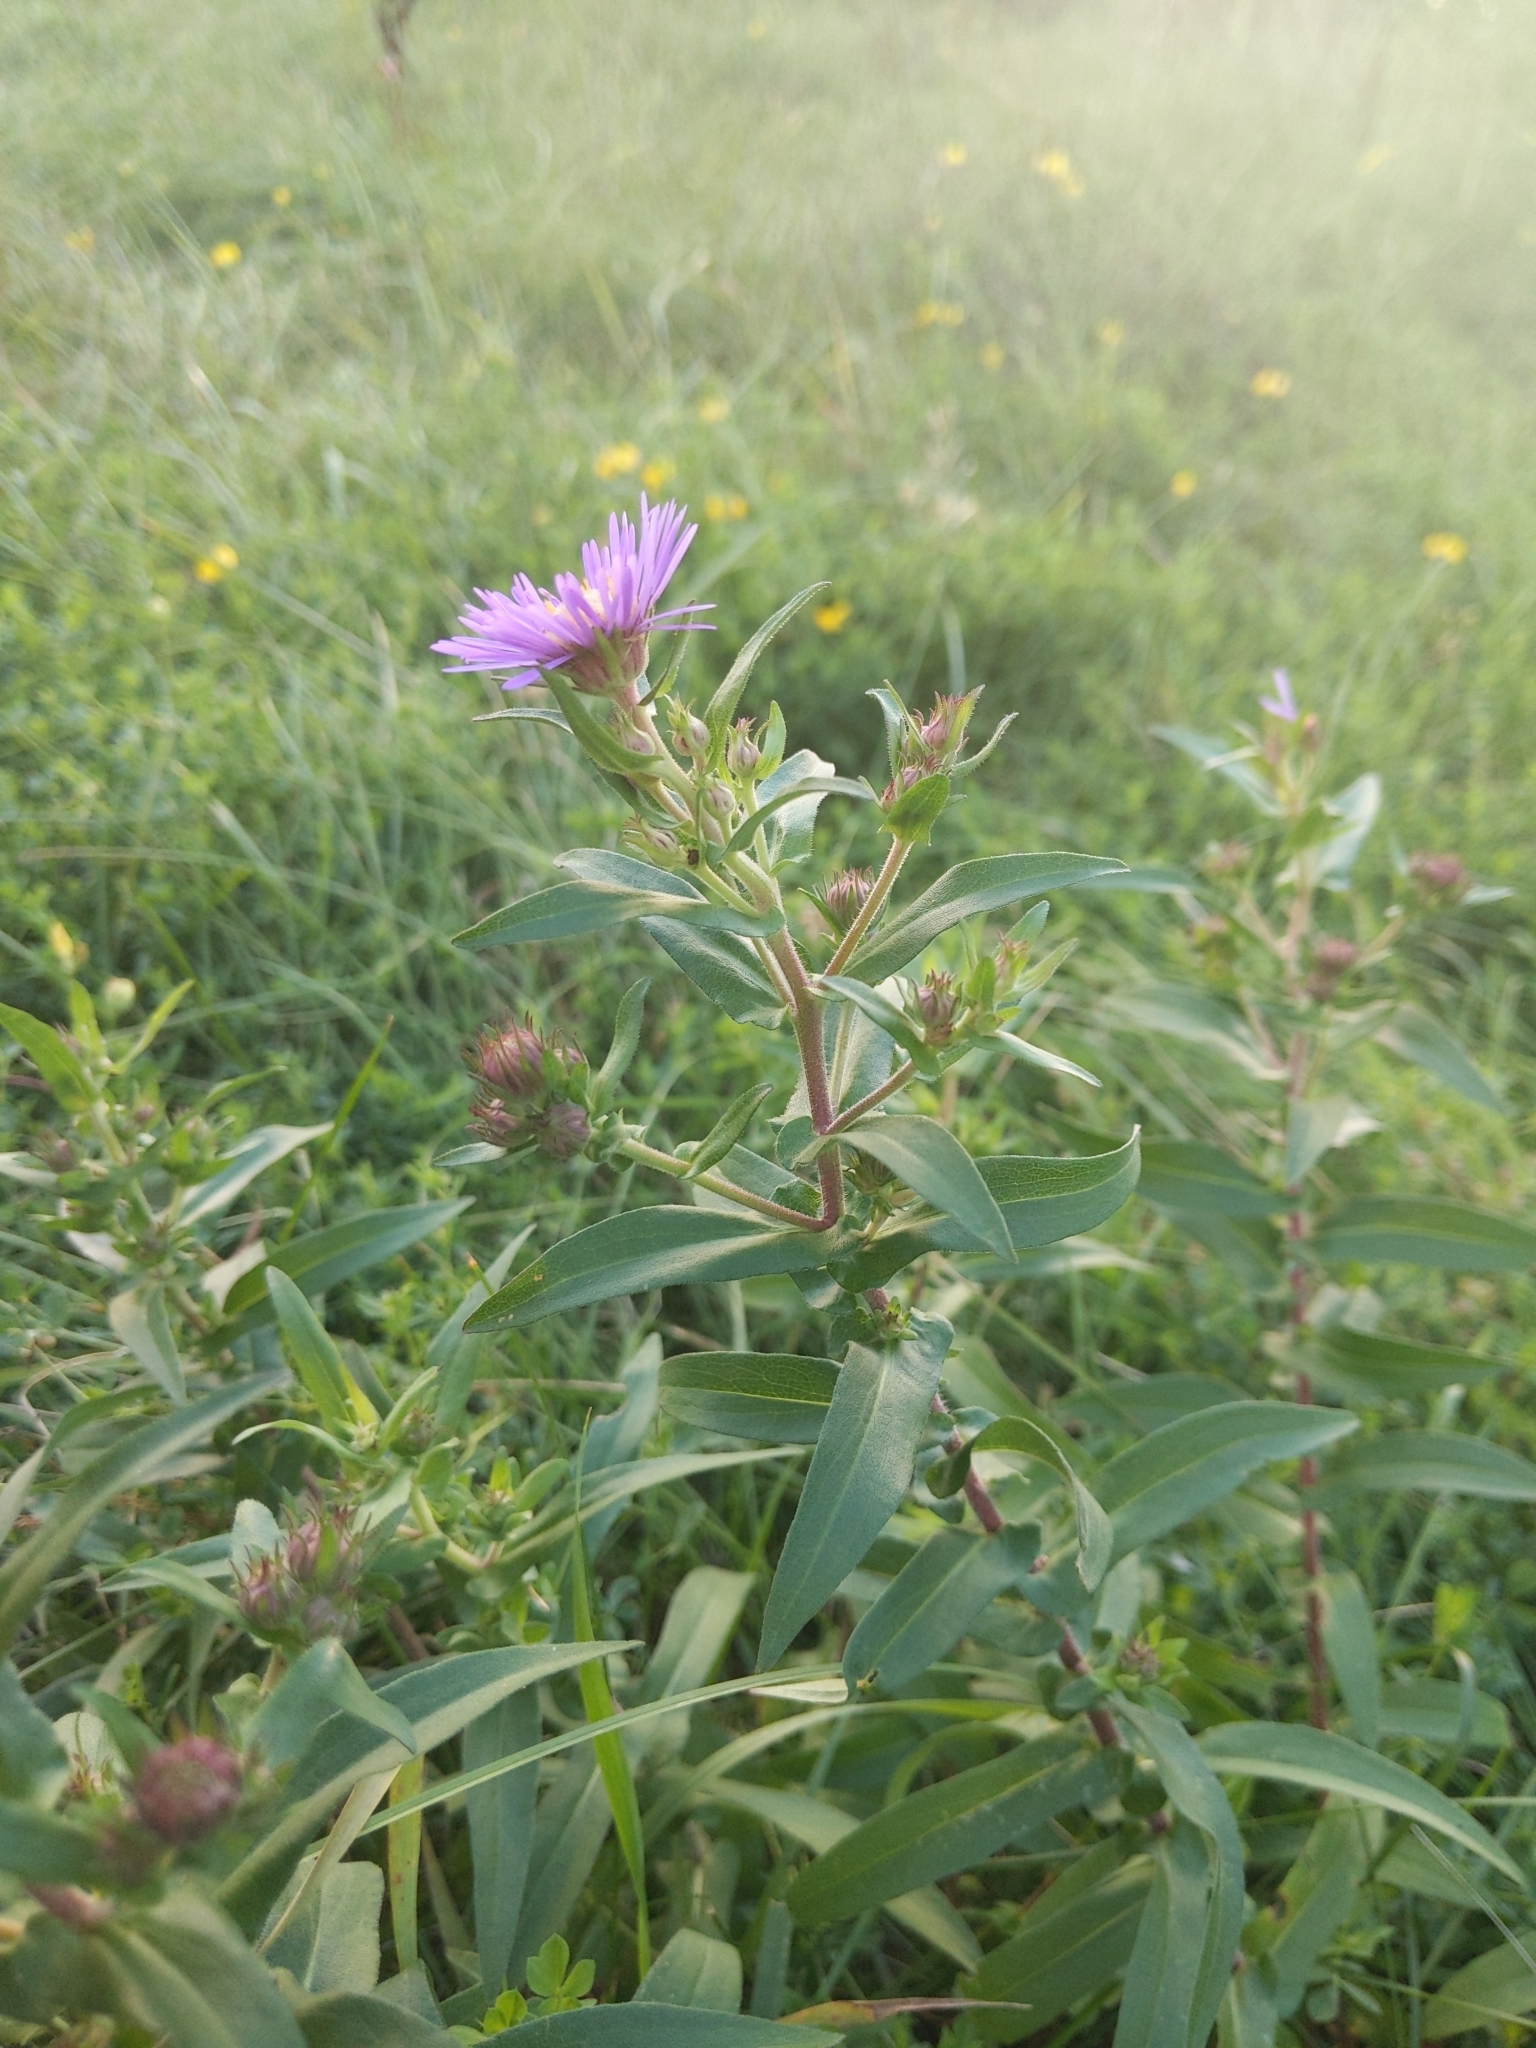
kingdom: Plantae
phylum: Tracheophyta
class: Magnoliopsida
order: Asterales
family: Asteraceae
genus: Symphyotrichum
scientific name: Symphyotrichum novae-angliae
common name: Michaelmas daisy
